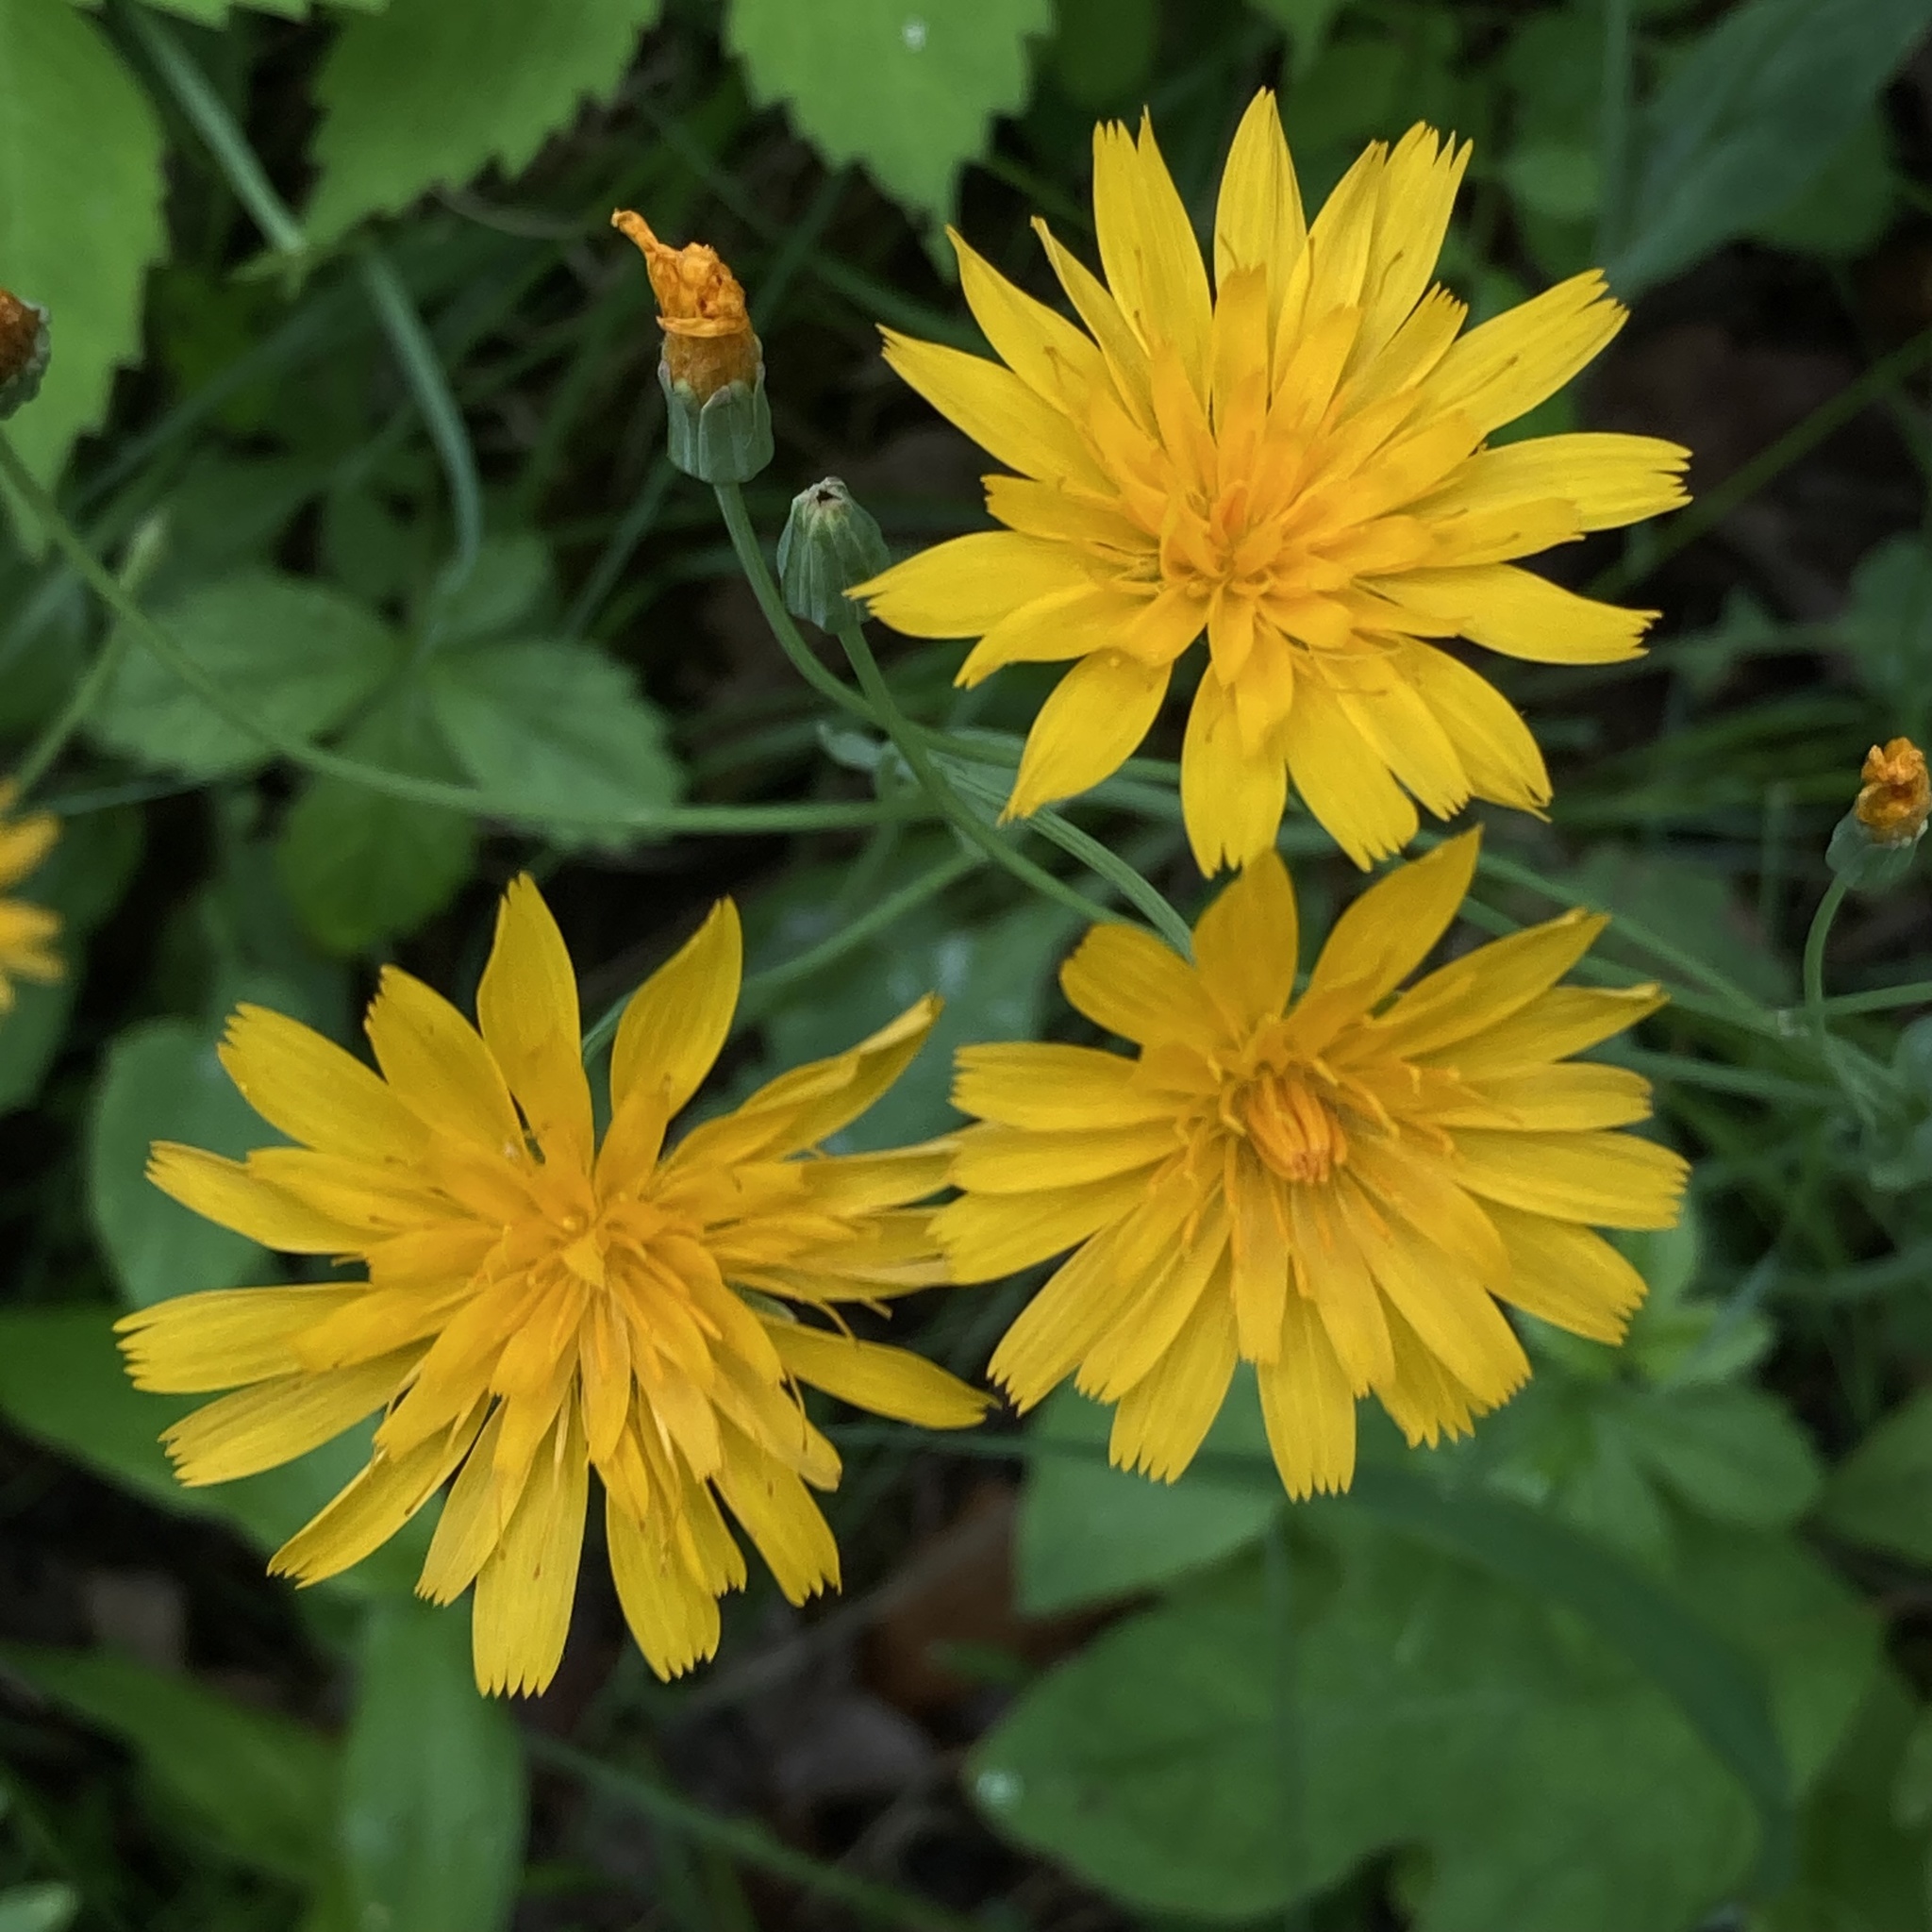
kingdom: Plantae
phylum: Tracheophyta
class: Magnoliopsida
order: Asterales
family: Asteraceae
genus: Krigia
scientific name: Krigia biflora
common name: Orange dwarf-dandelion
